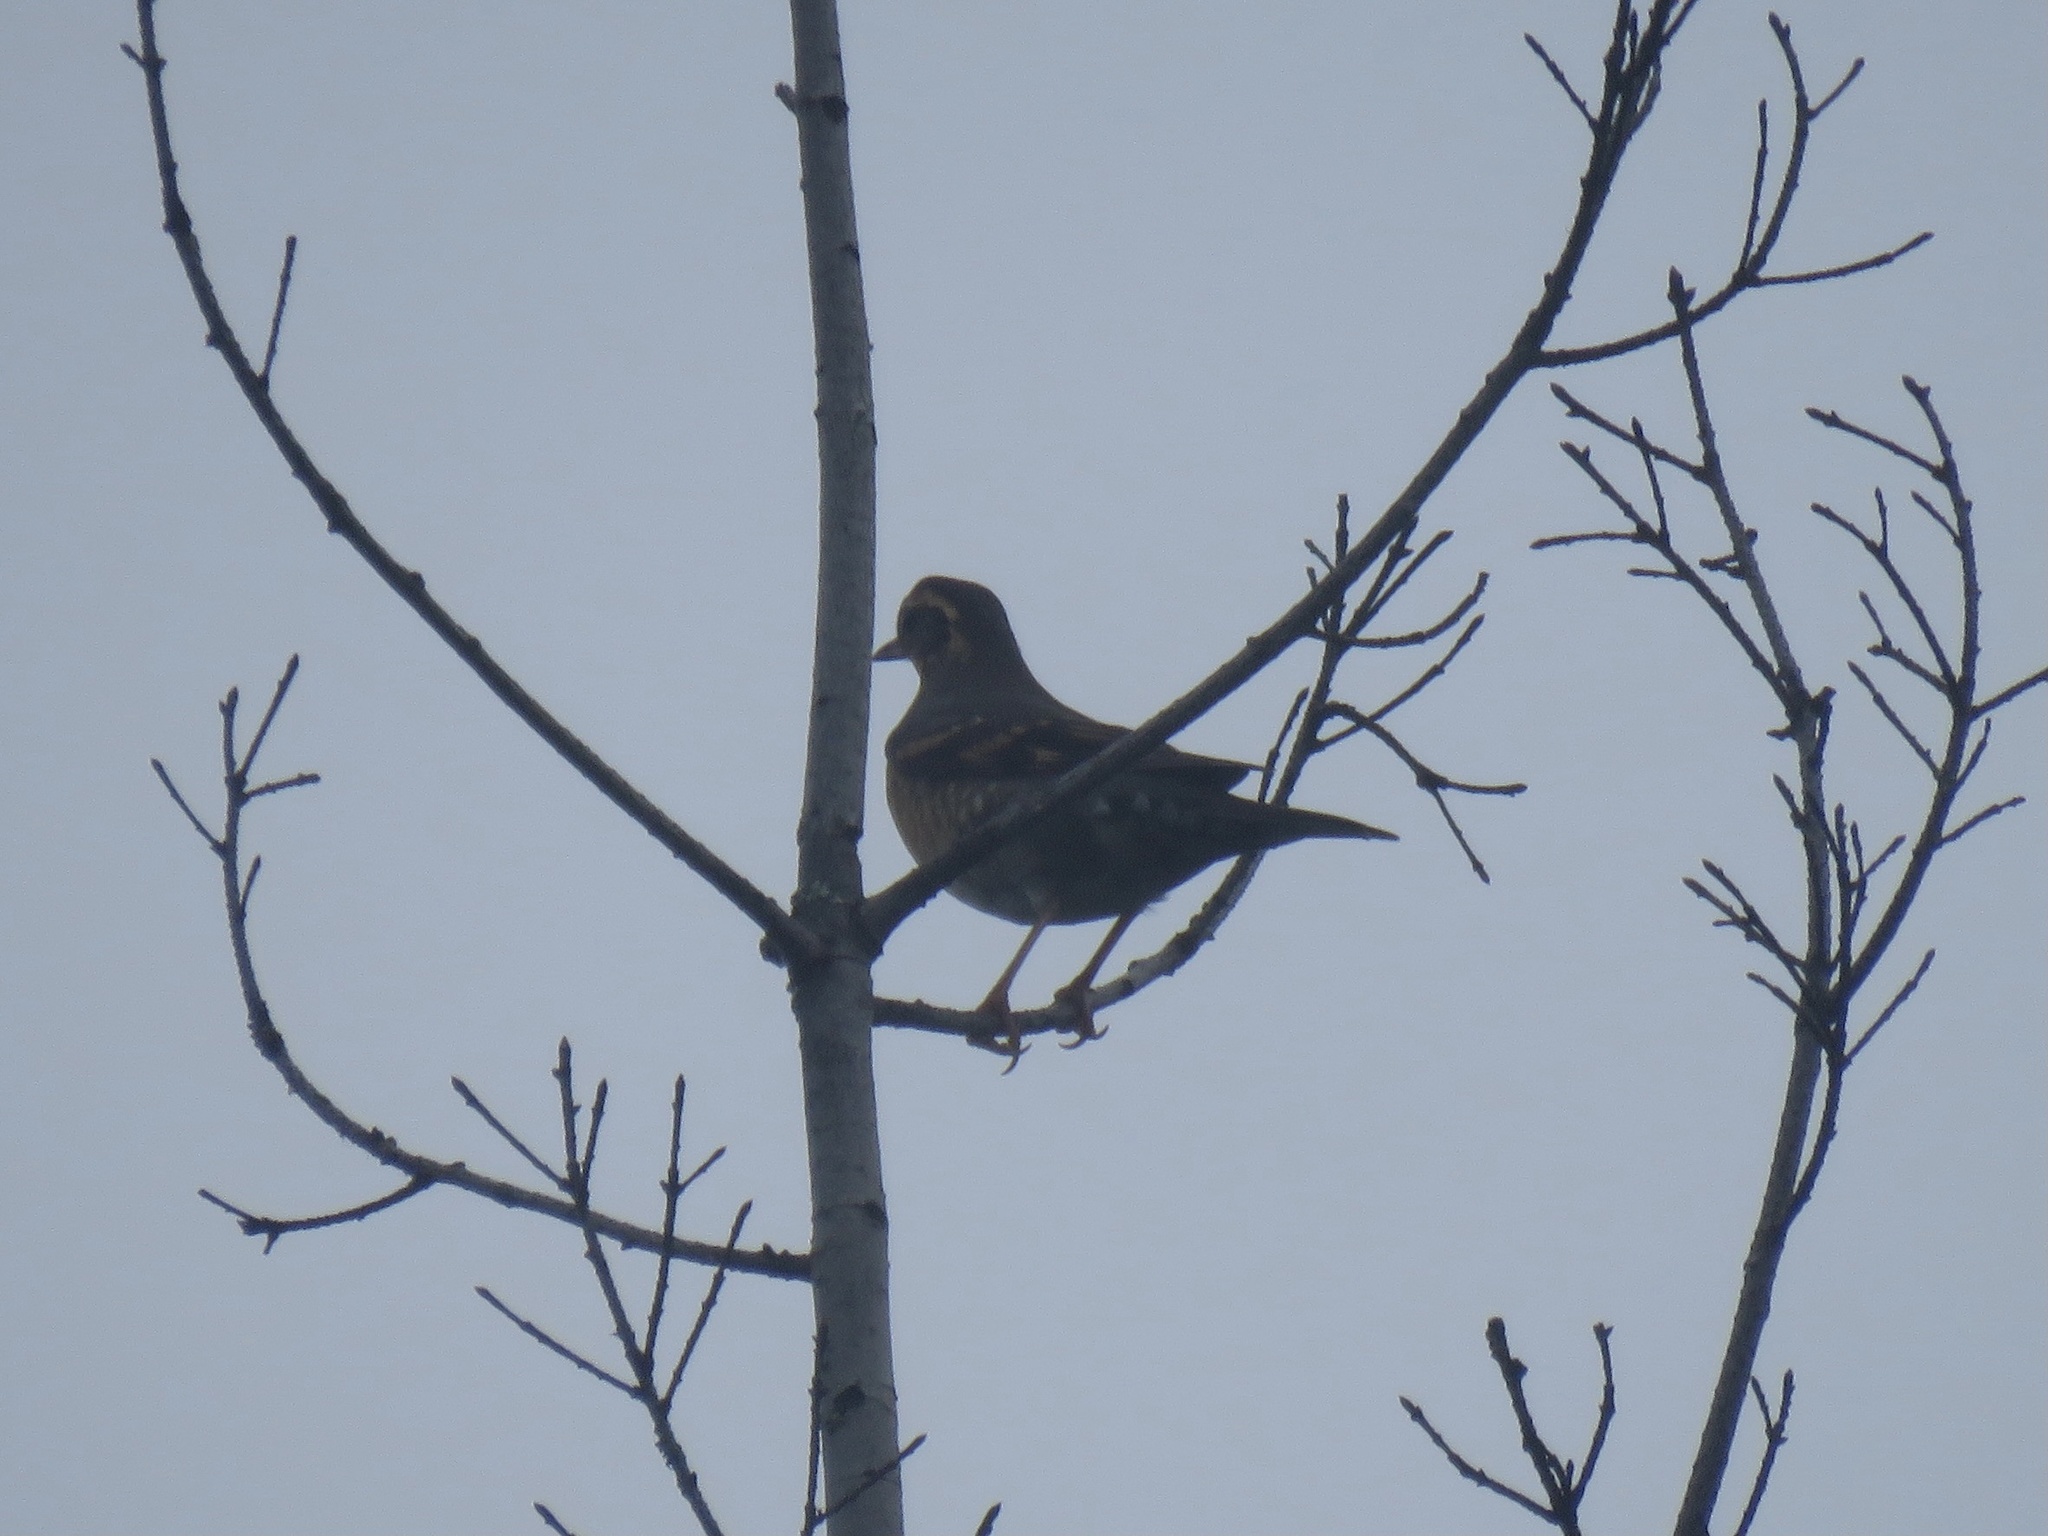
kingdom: Animalia
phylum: Chordata
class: Aves
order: Passeriformes
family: Turdidae
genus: Ixoreus
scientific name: Ixoreus naevius
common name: Varied thrush
